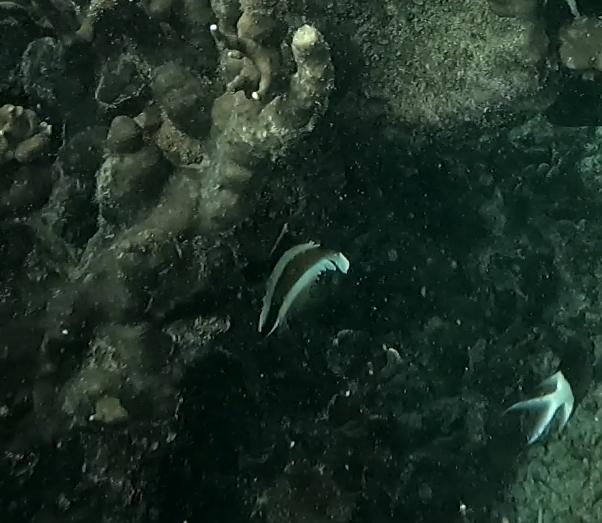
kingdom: Animalia
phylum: Chordata
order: Perciformes
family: Chaetodontidae
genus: Heniochus
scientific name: Heniochus chrysostomus
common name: Horned bannerfish
